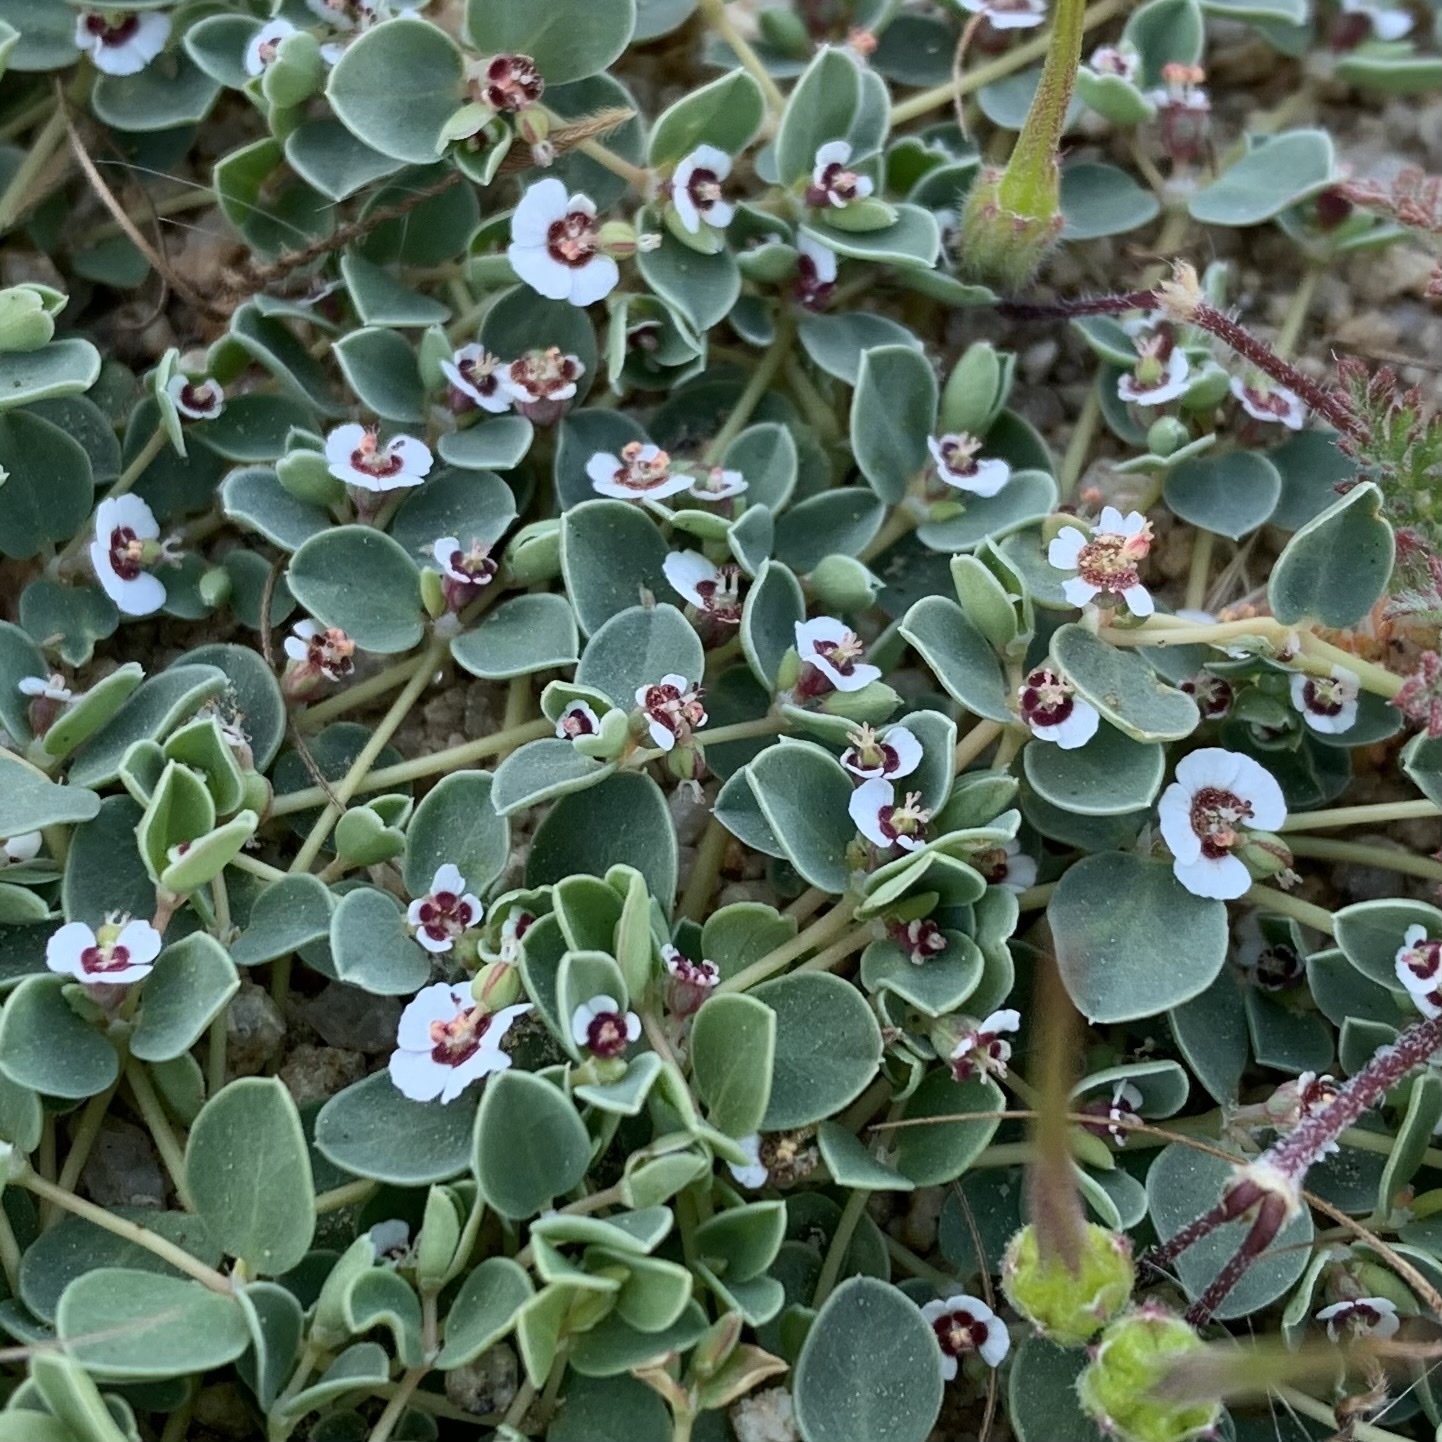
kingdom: Plantae
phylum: Tracheophyta
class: Magnoliopsida
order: Malpighiales
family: Euphorbiaceae
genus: Euphorbia
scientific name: Euphorbia albomarginata
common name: Whitemargin sandmat
